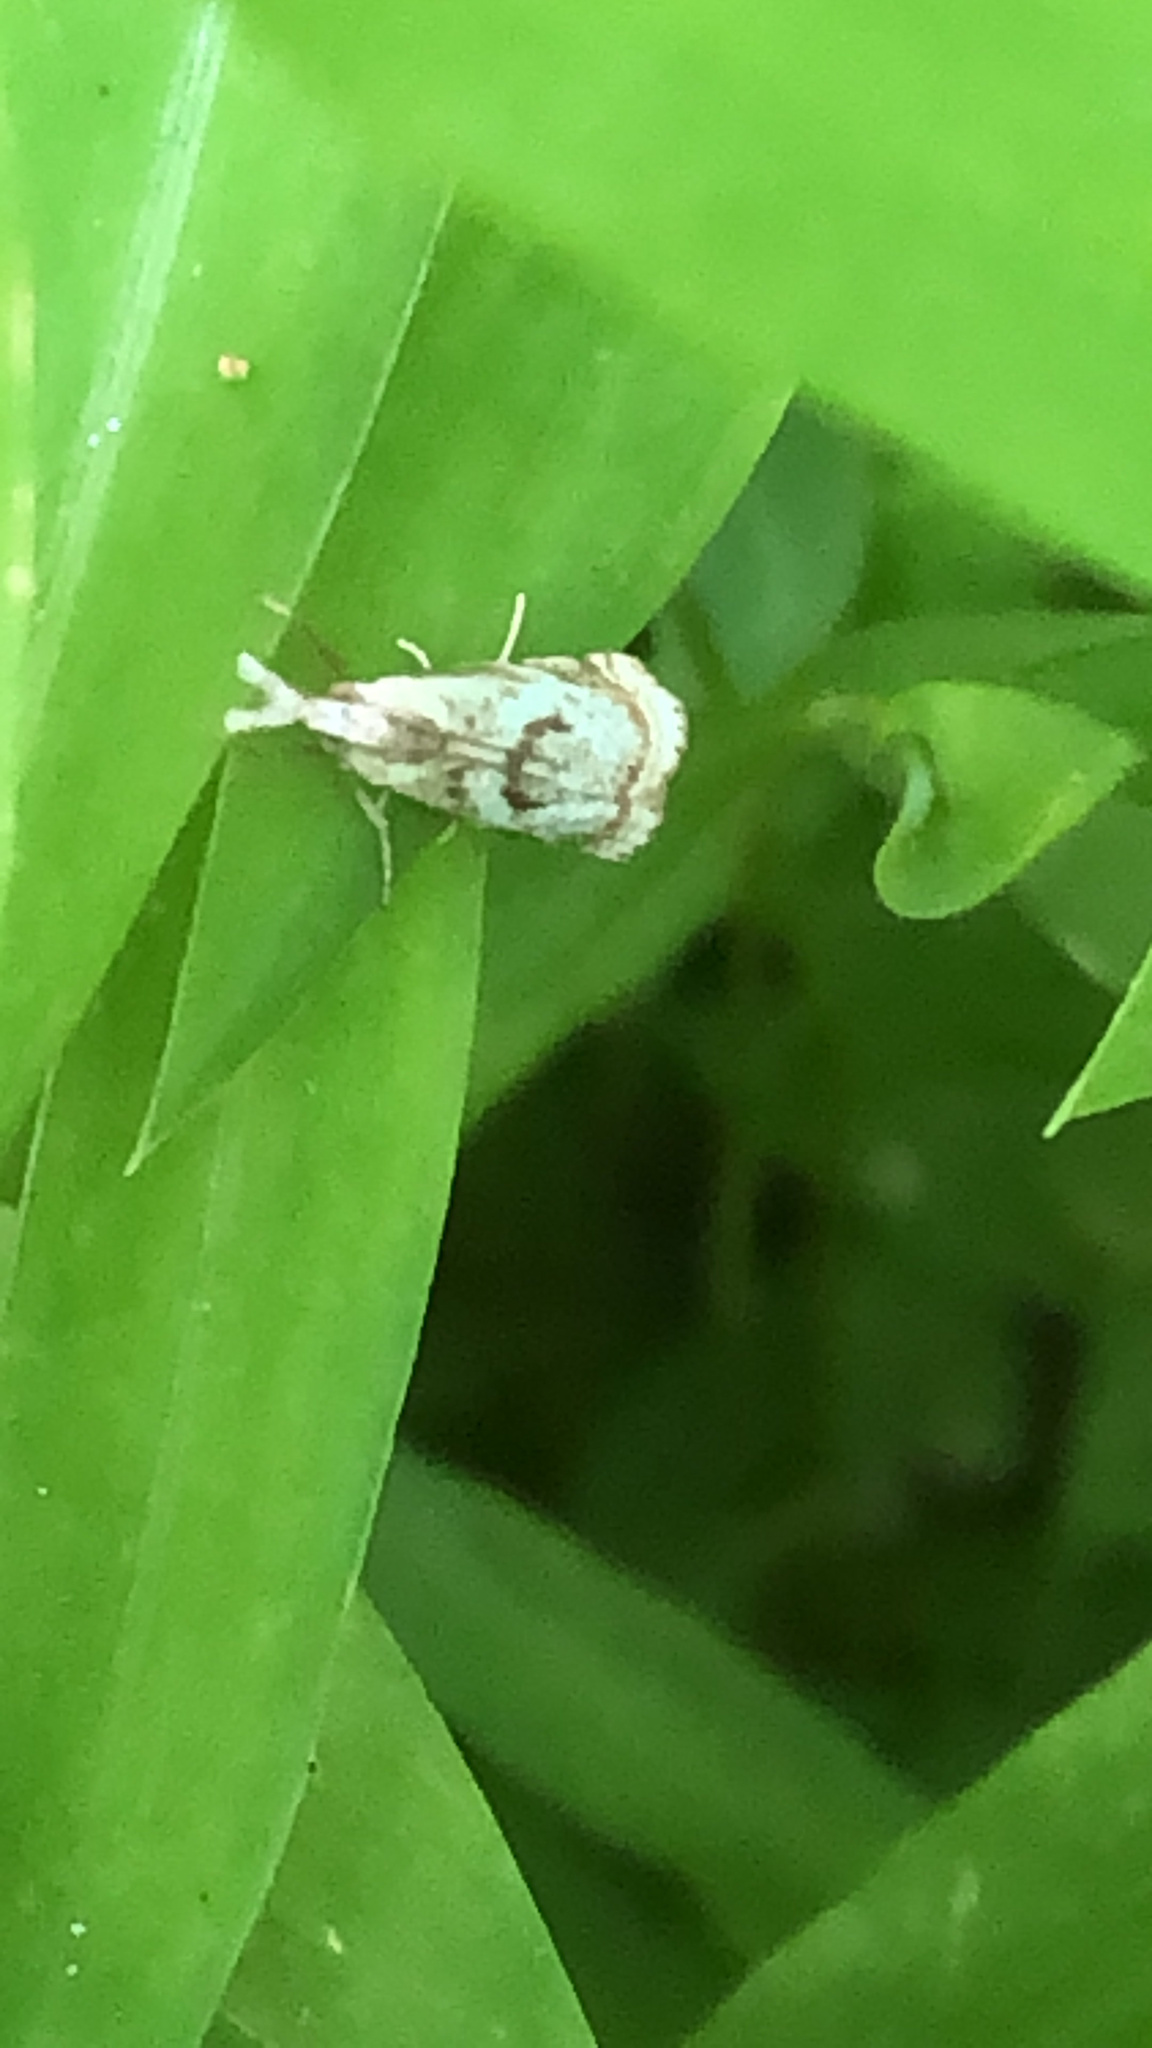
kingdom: Animalia
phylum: Arthropoda
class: Insecta
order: Lepidoptera
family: Crambidae
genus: Microcrambus
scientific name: Microcrambus elegans
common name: Elegant grass-veneer
